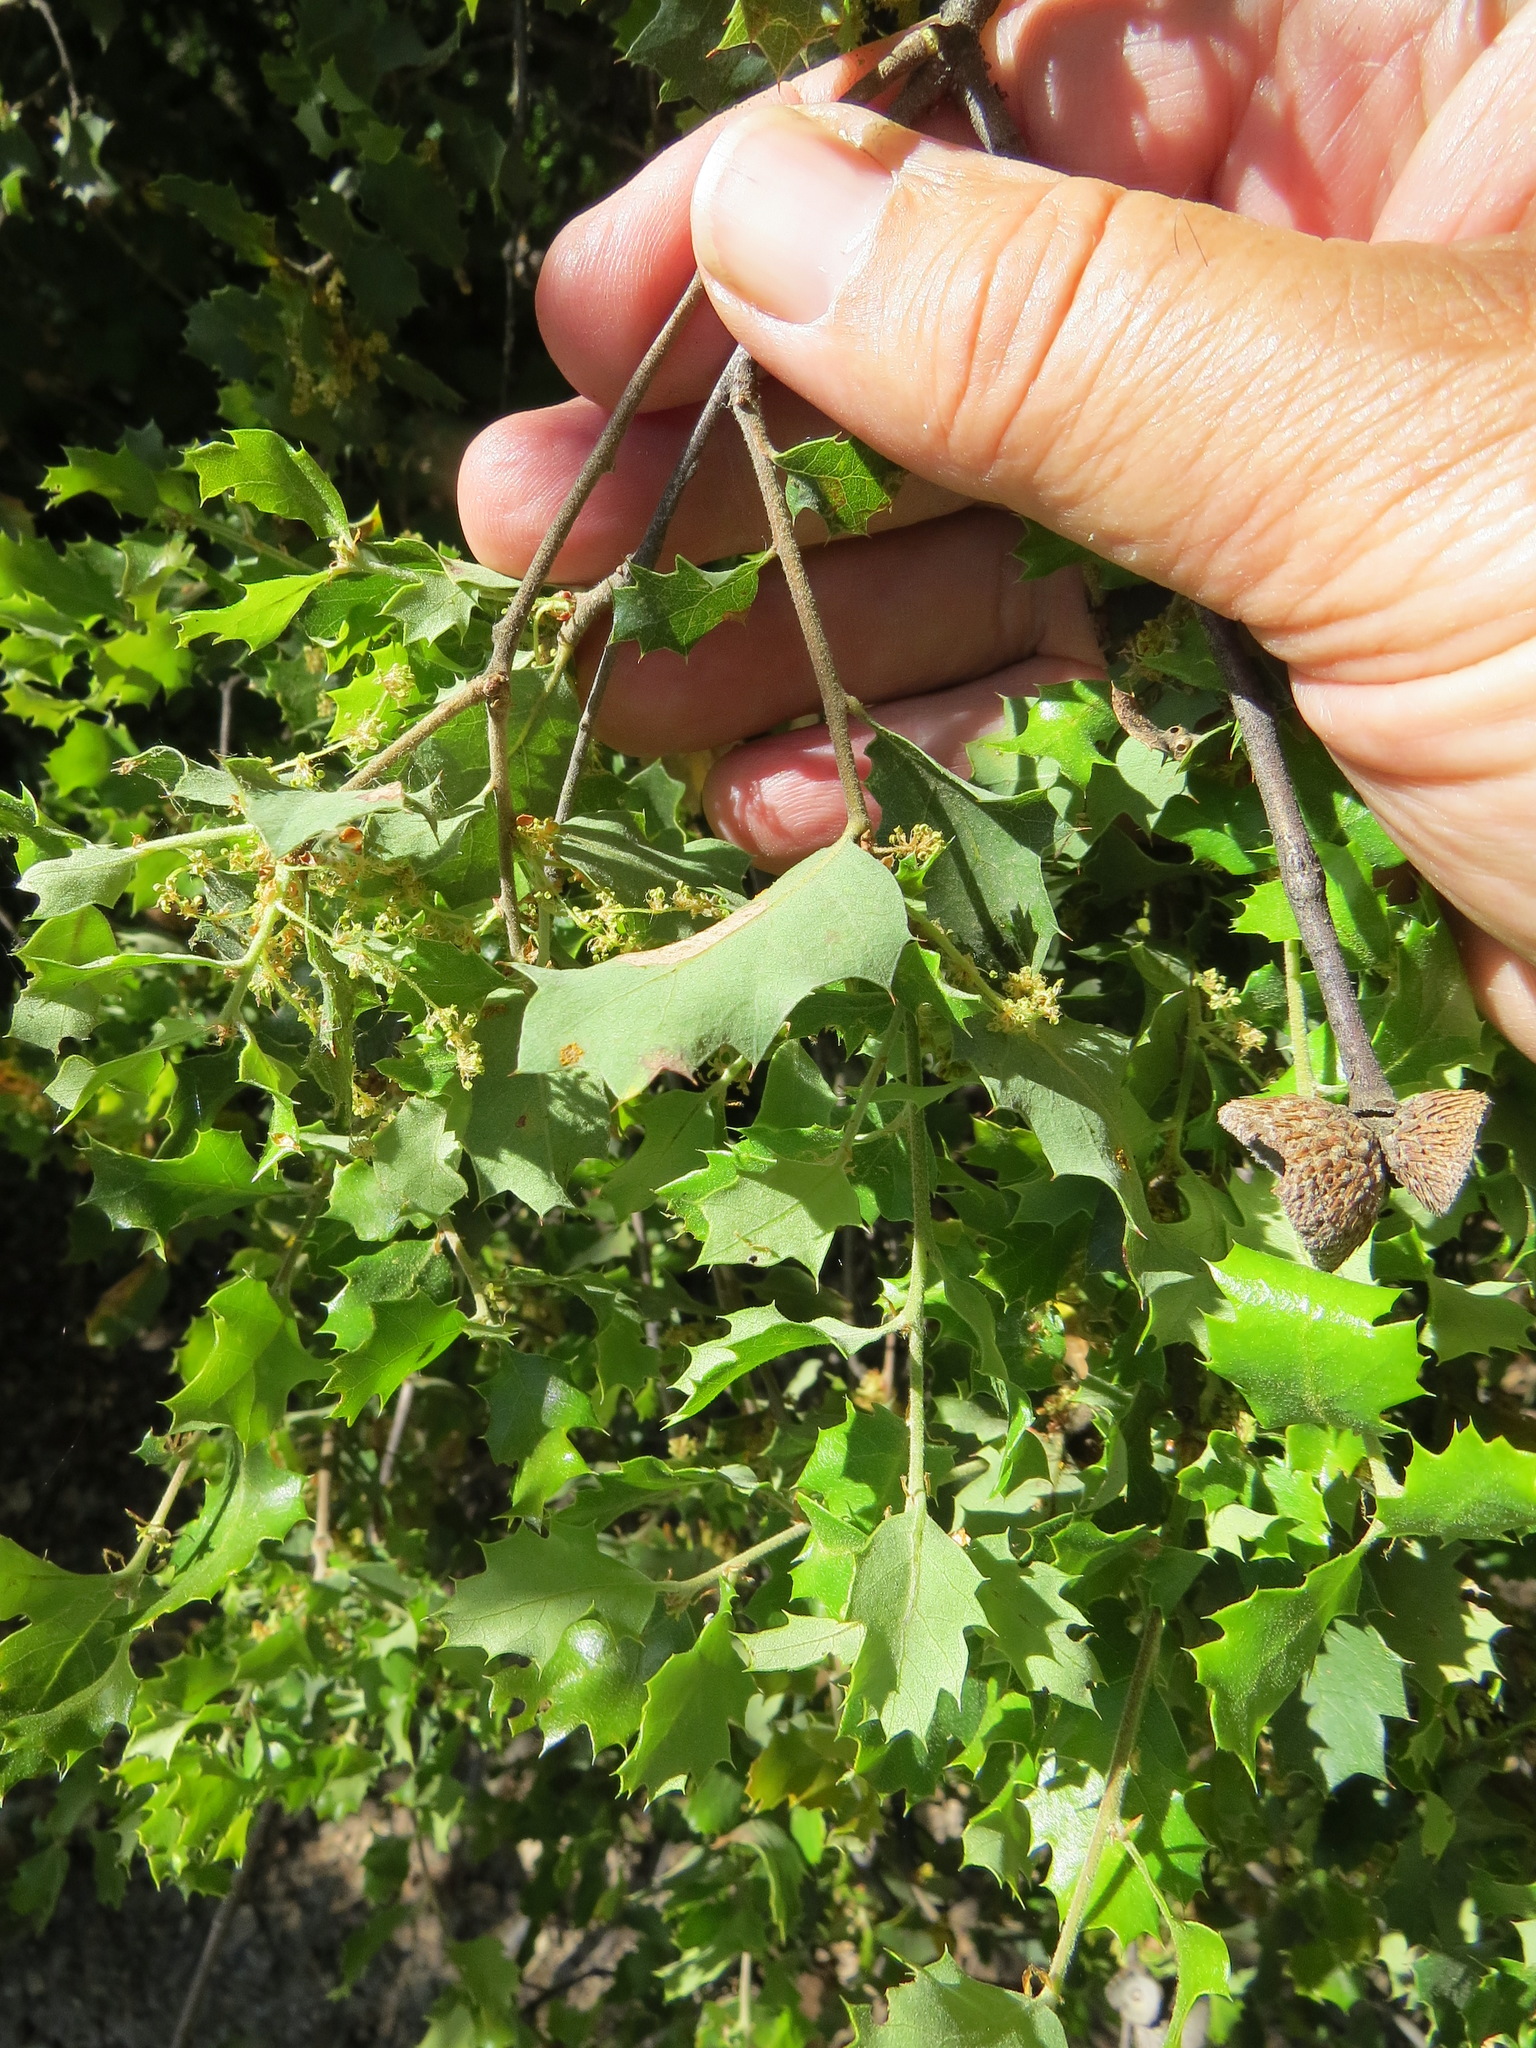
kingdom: Animalia
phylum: Arthropoda
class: Insecta
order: Hymenoptera
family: Cynipidae
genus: Andricus
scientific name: Andricus
